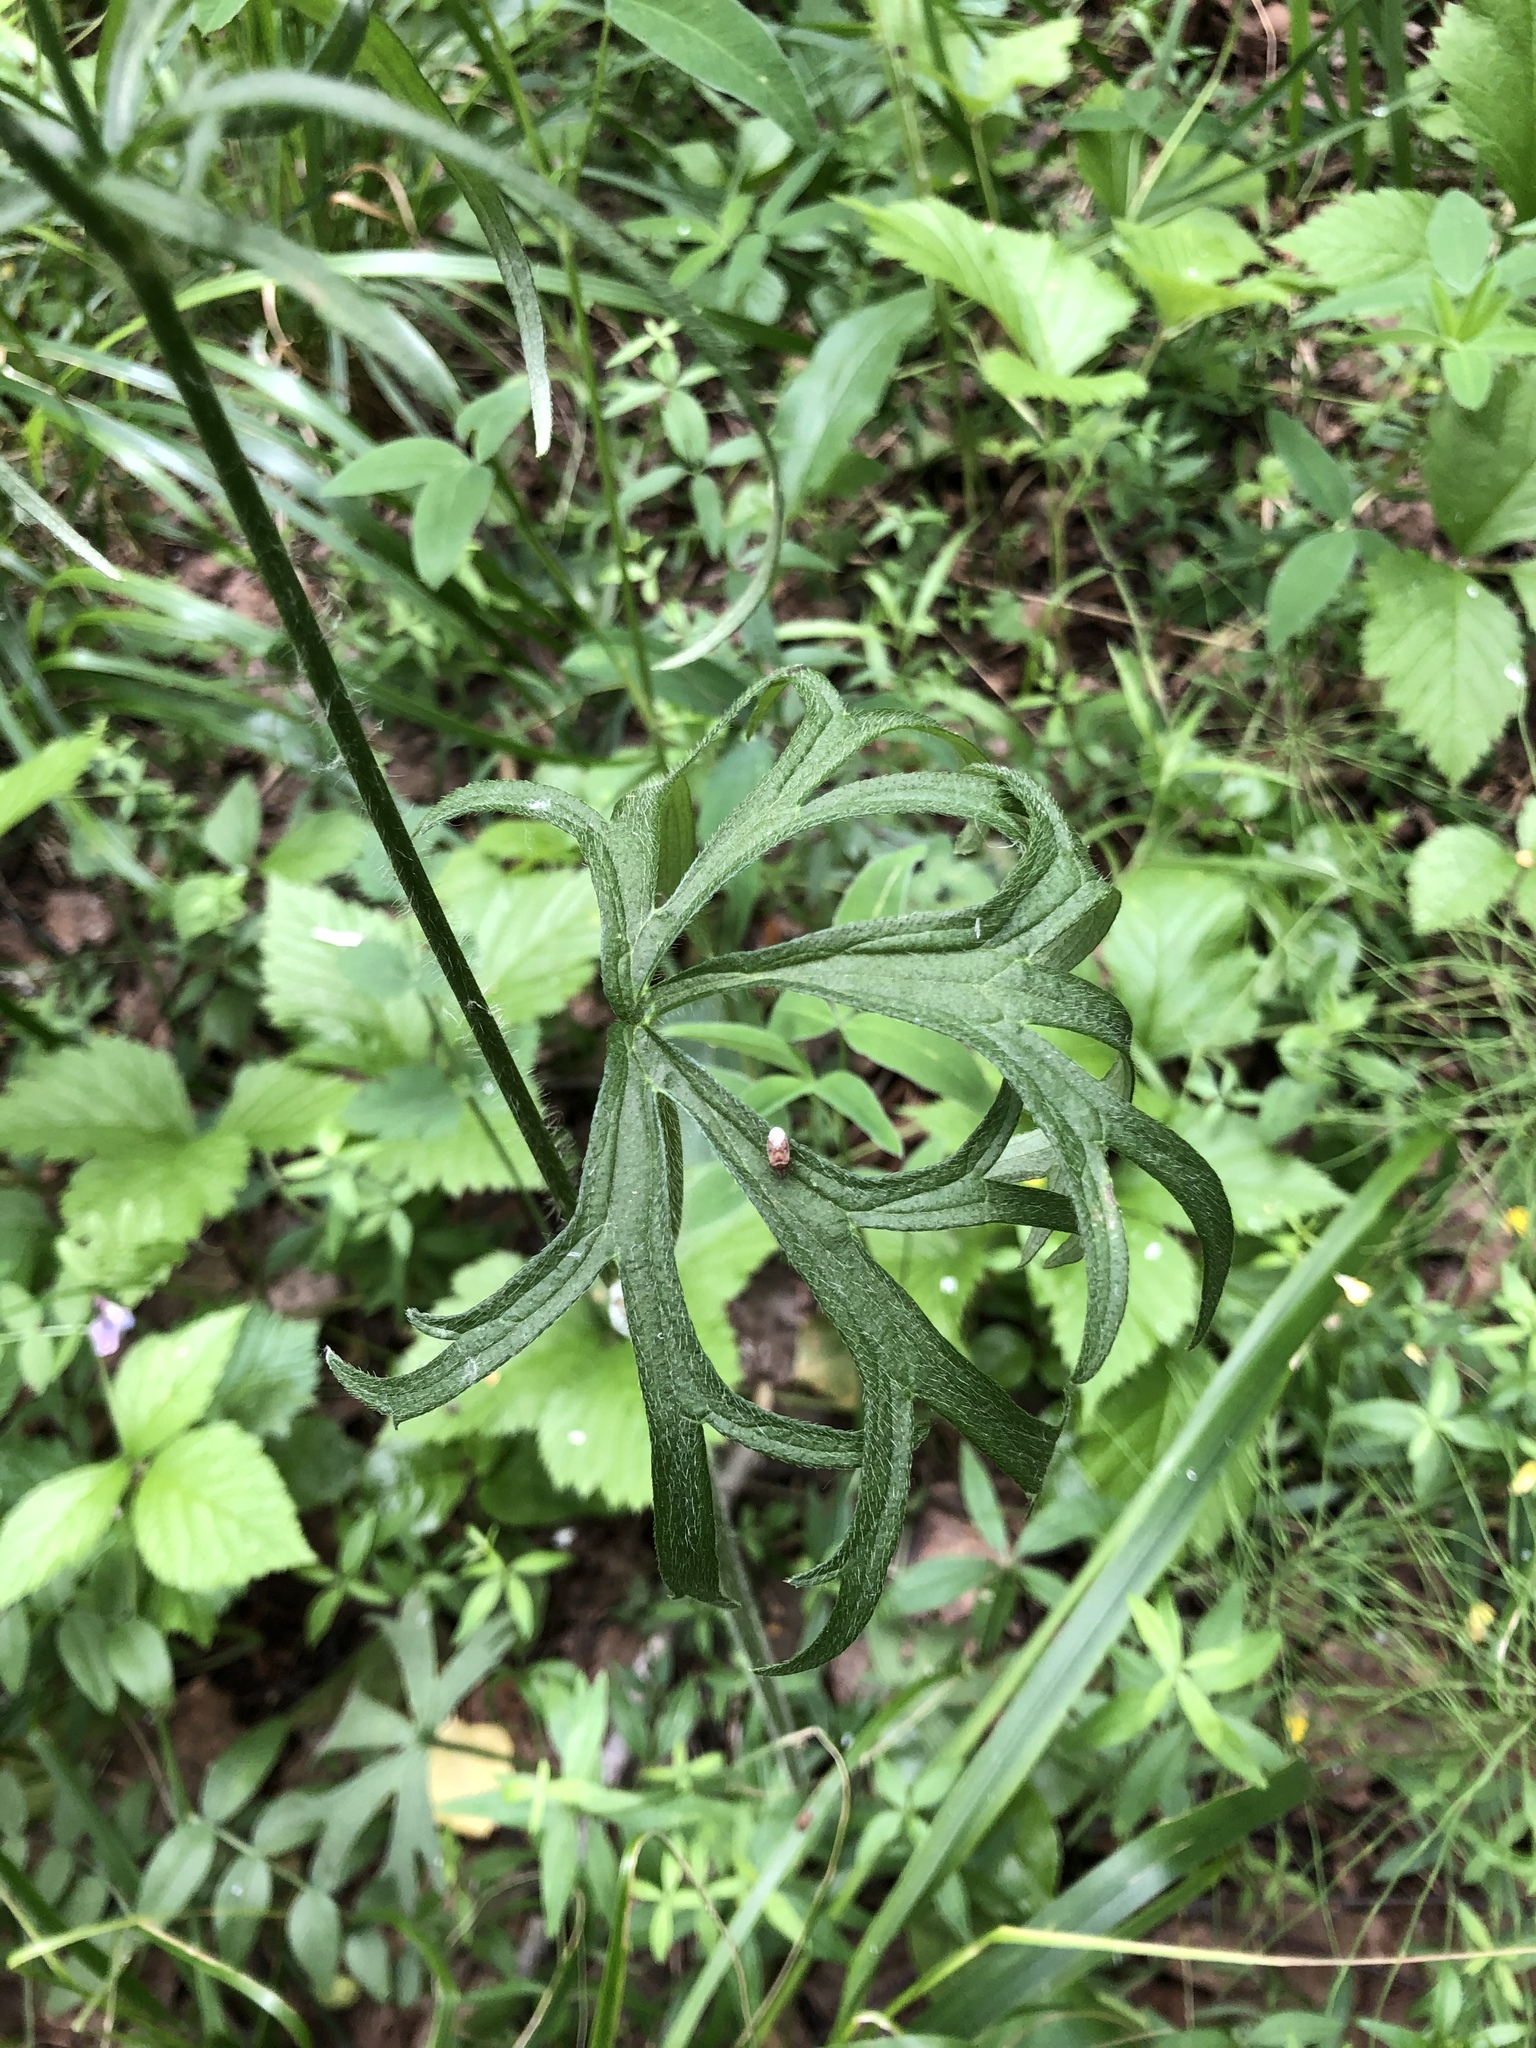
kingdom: Plantae
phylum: Tracheophyta
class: Magnoliopsida
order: Ranunculales
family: Ranunculaceae
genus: Ranunculus
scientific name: Ranunculus polyanthemos
